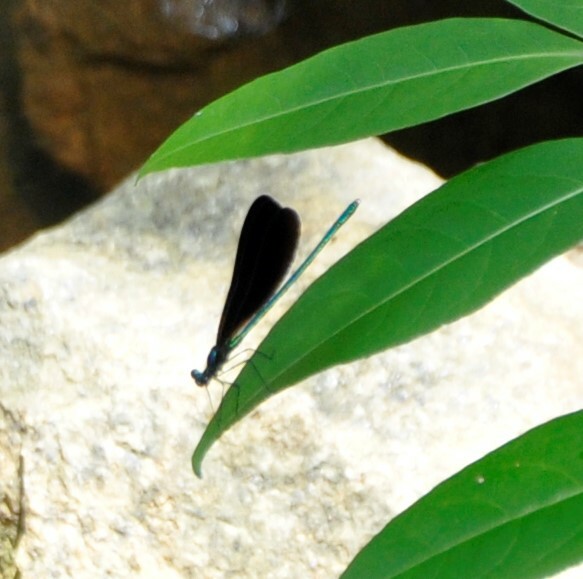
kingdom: Animalia
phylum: Arthropoda
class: Insecta
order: Odonata
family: Calopterygidae
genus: Calopteryx
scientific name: Calopteryx maculata
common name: Ebony jewelwing
